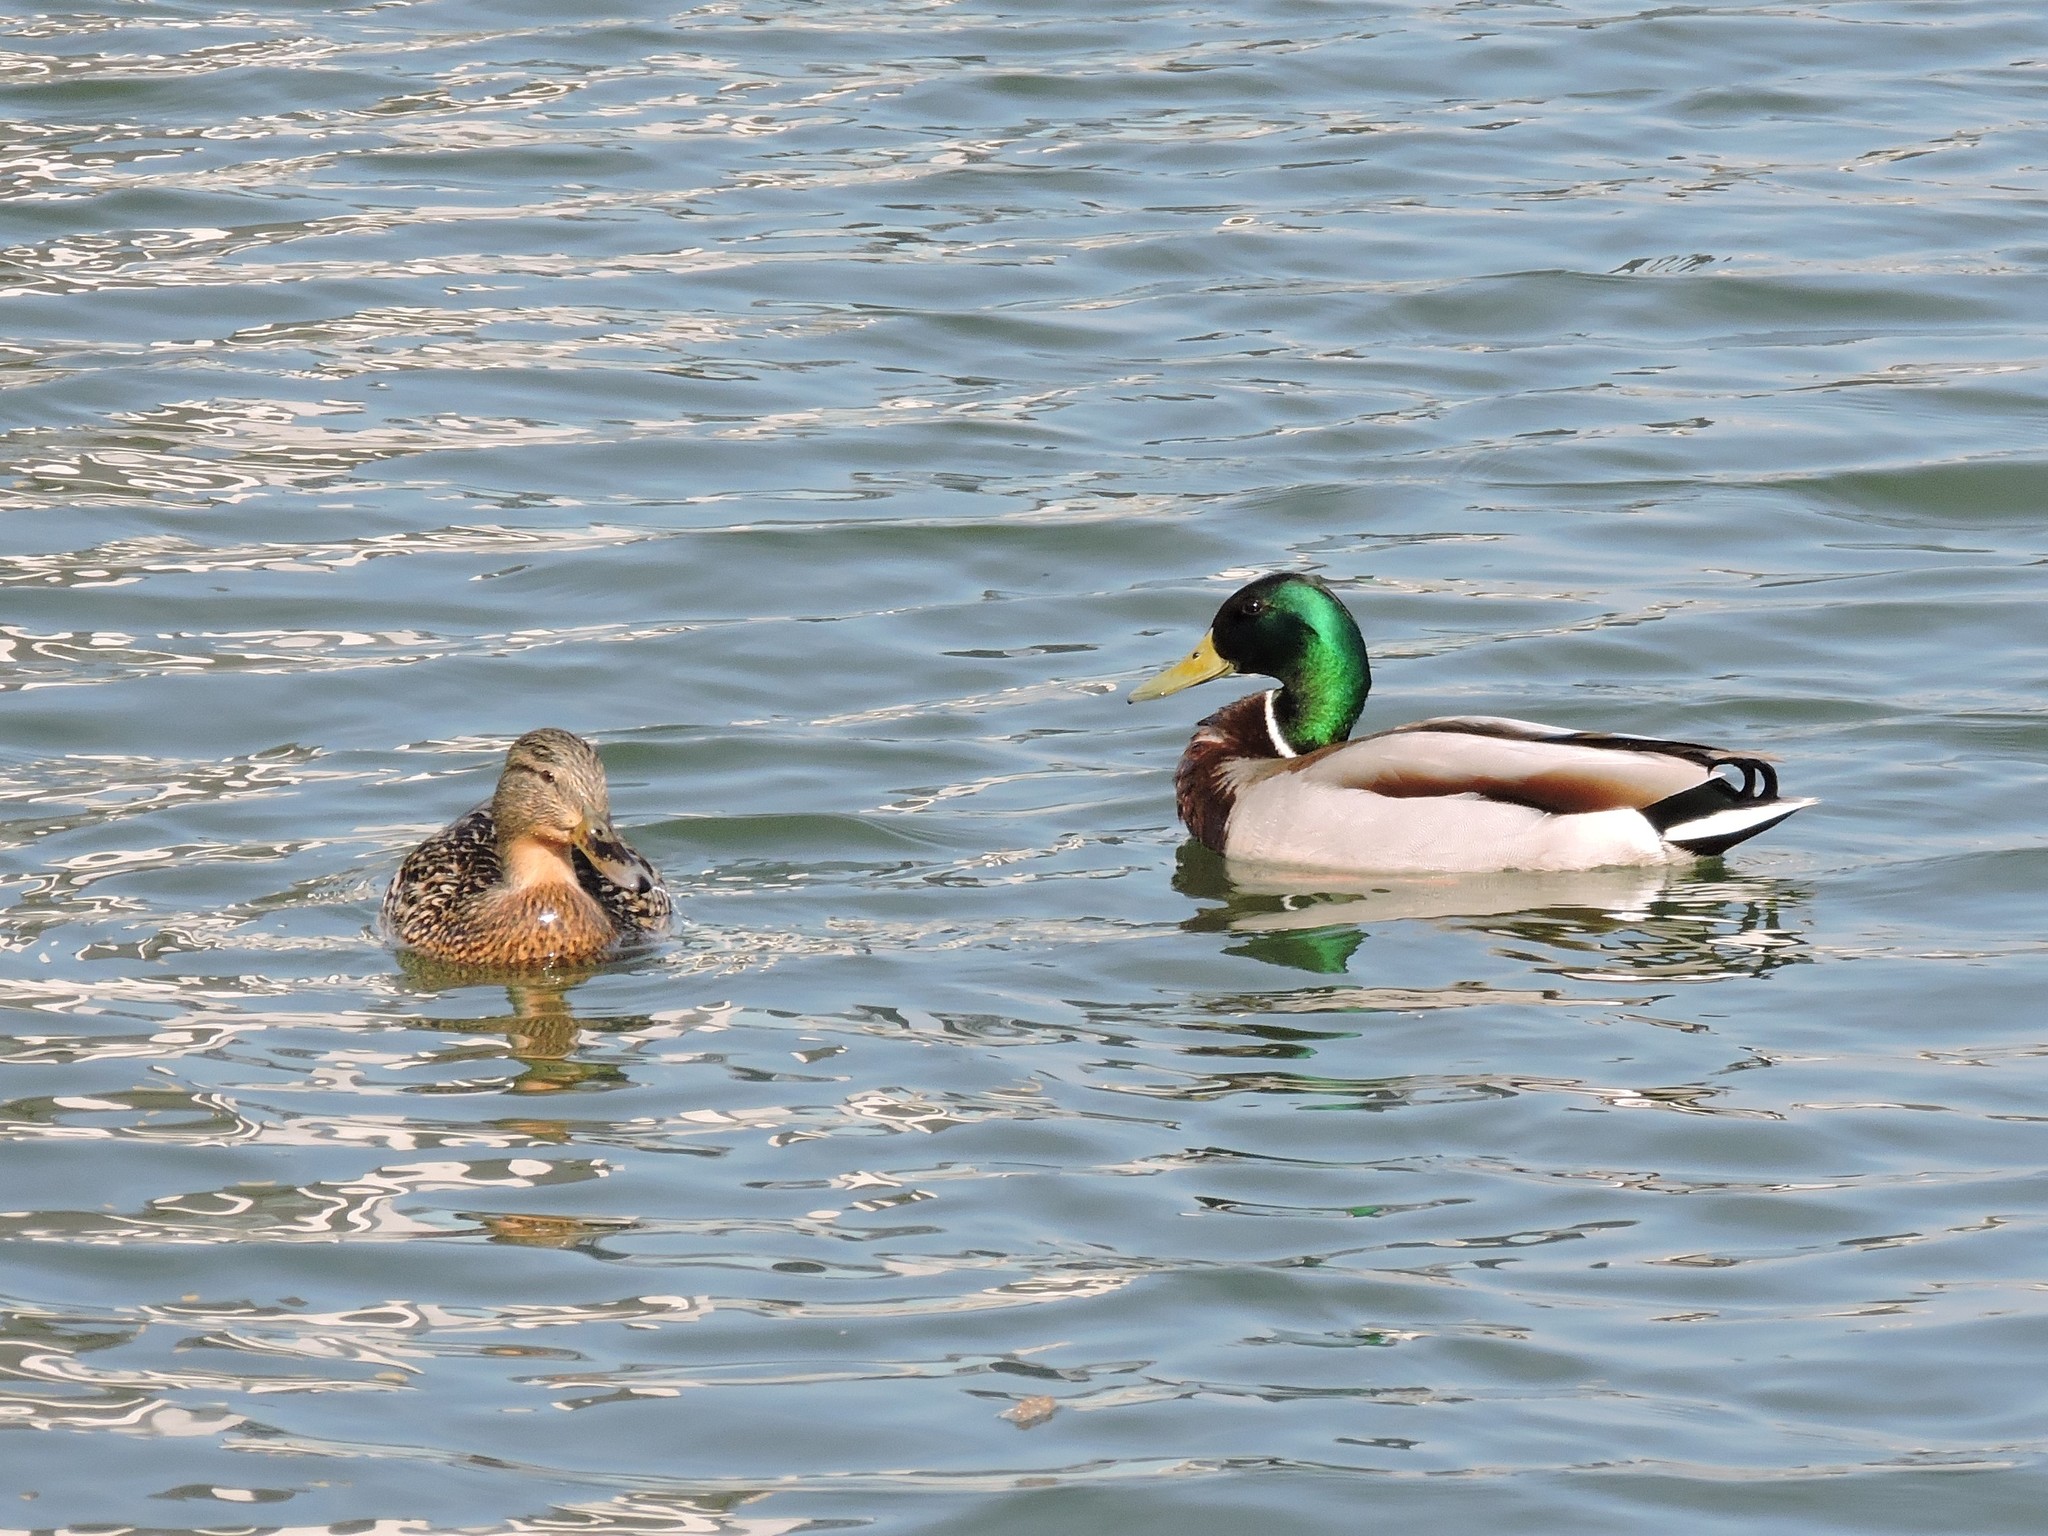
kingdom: Animalia
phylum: Chordata
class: Aves
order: Anseriformes
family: Anatidae
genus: Anas
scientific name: Anas platyrhynchos
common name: Mallard
